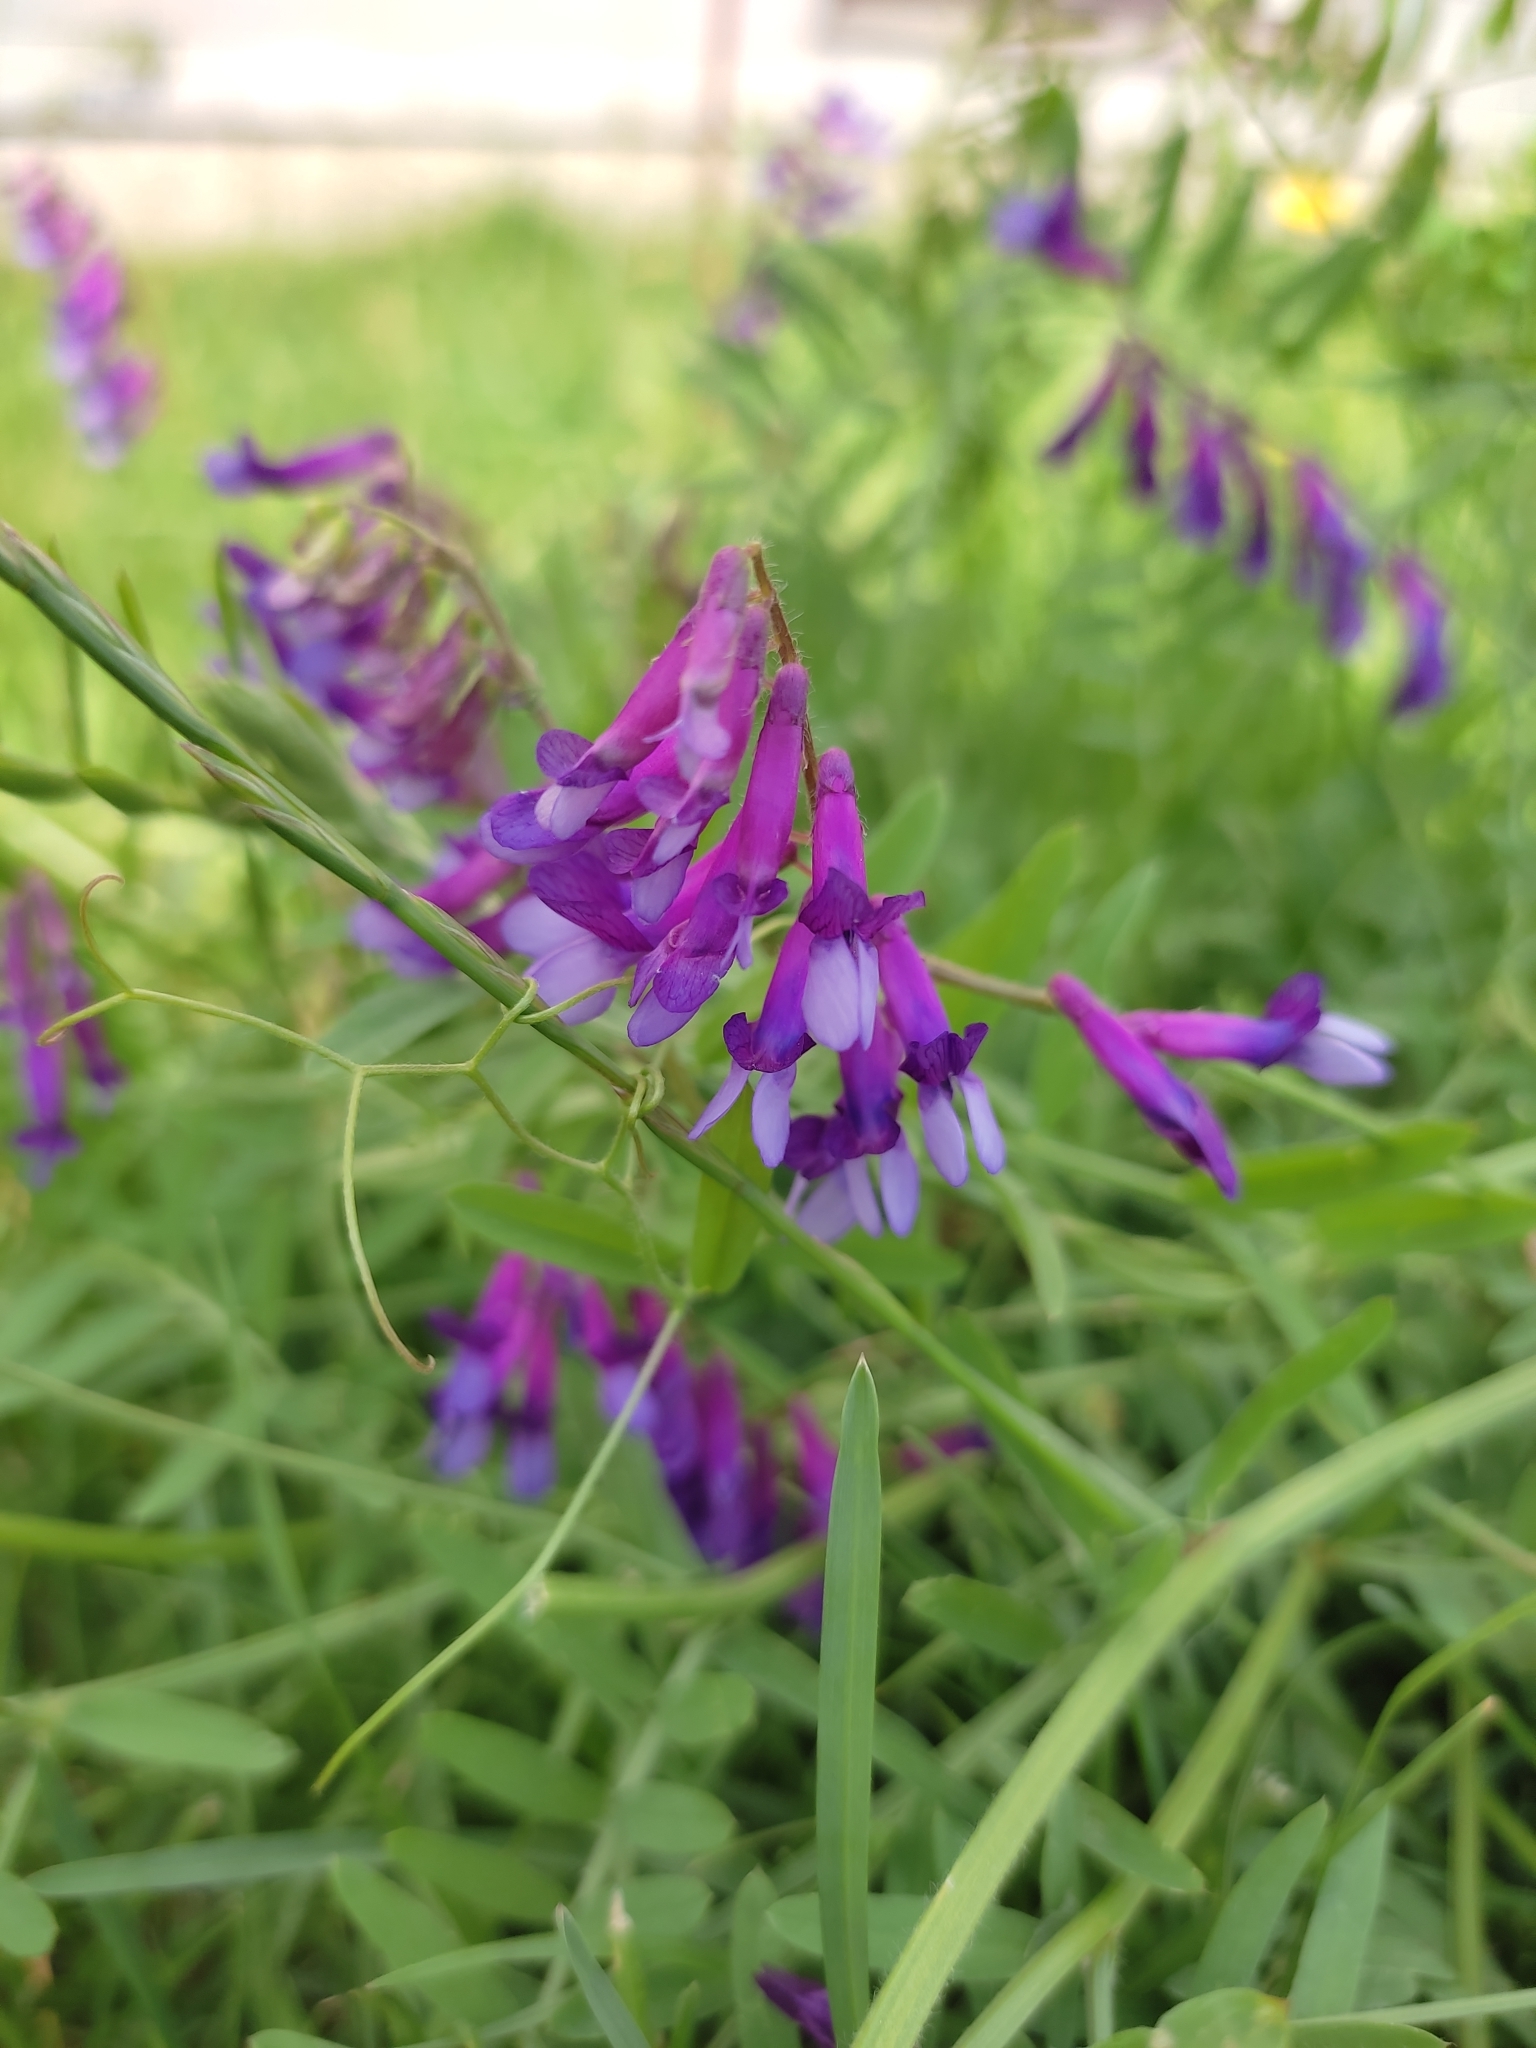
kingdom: Plantae
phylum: Tracheophyta
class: Magnoliopsida
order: Fabales
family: Fabaceae
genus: Vicia
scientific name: Vicia villosa
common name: Fodder vetch
